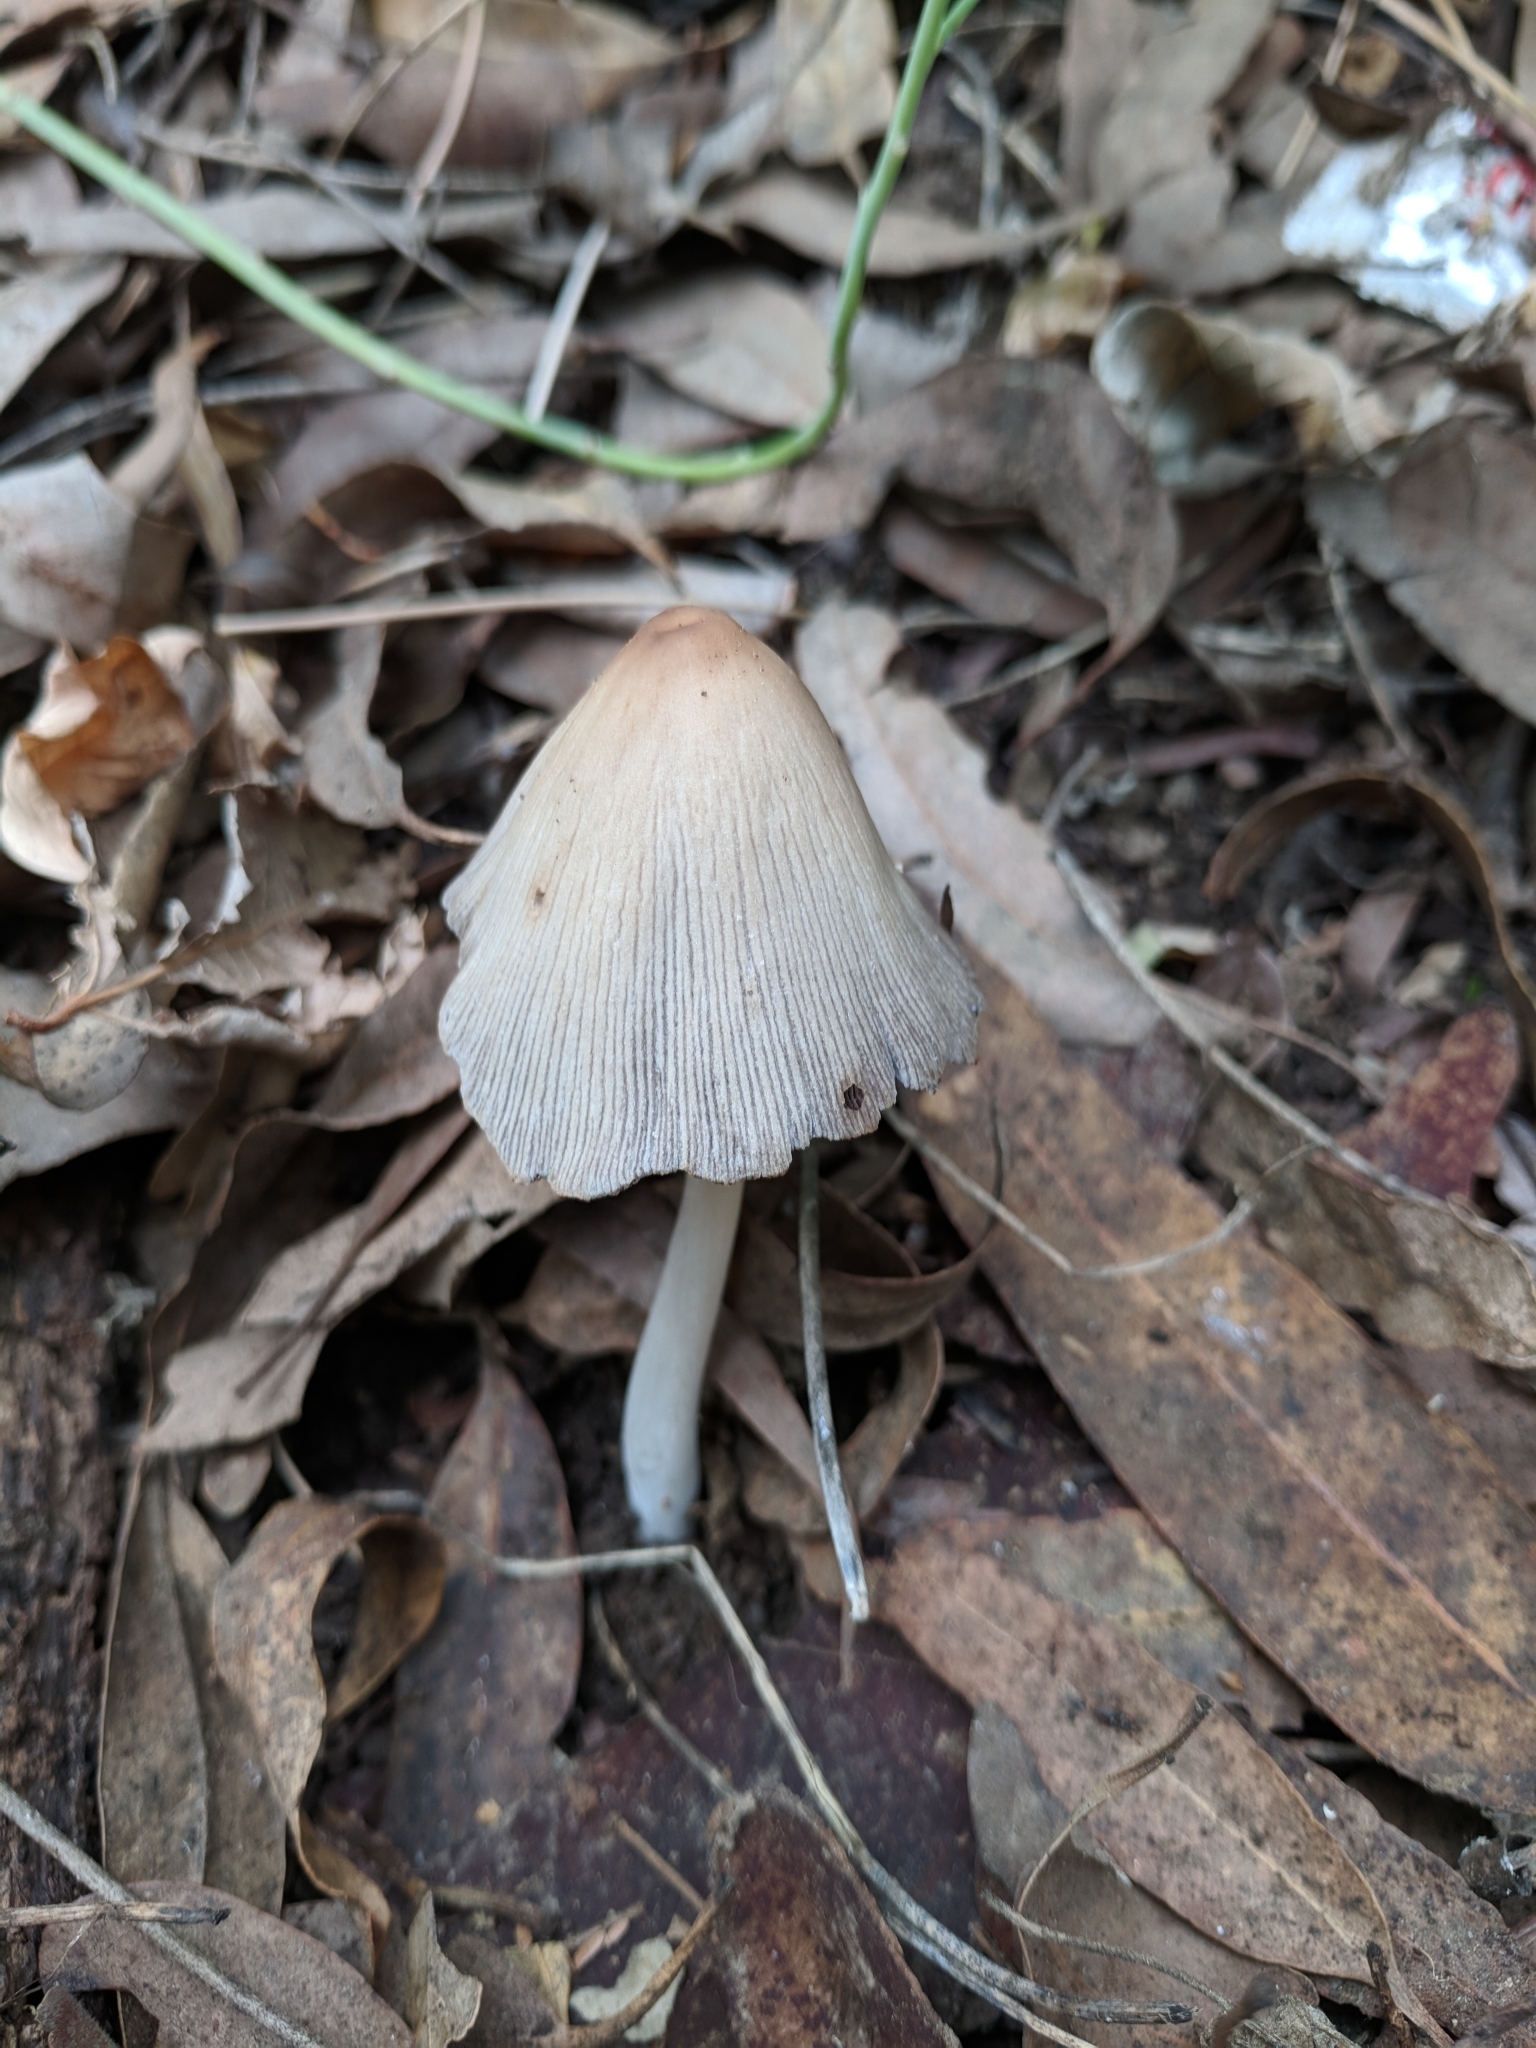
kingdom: Fungi
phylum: Basidiomycota
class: Agaricomycetes
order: Agaricales
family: Psathyrellaceae
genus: Coprinellus
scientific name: Coprinellus micaceus
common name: Glistening ink-cap
